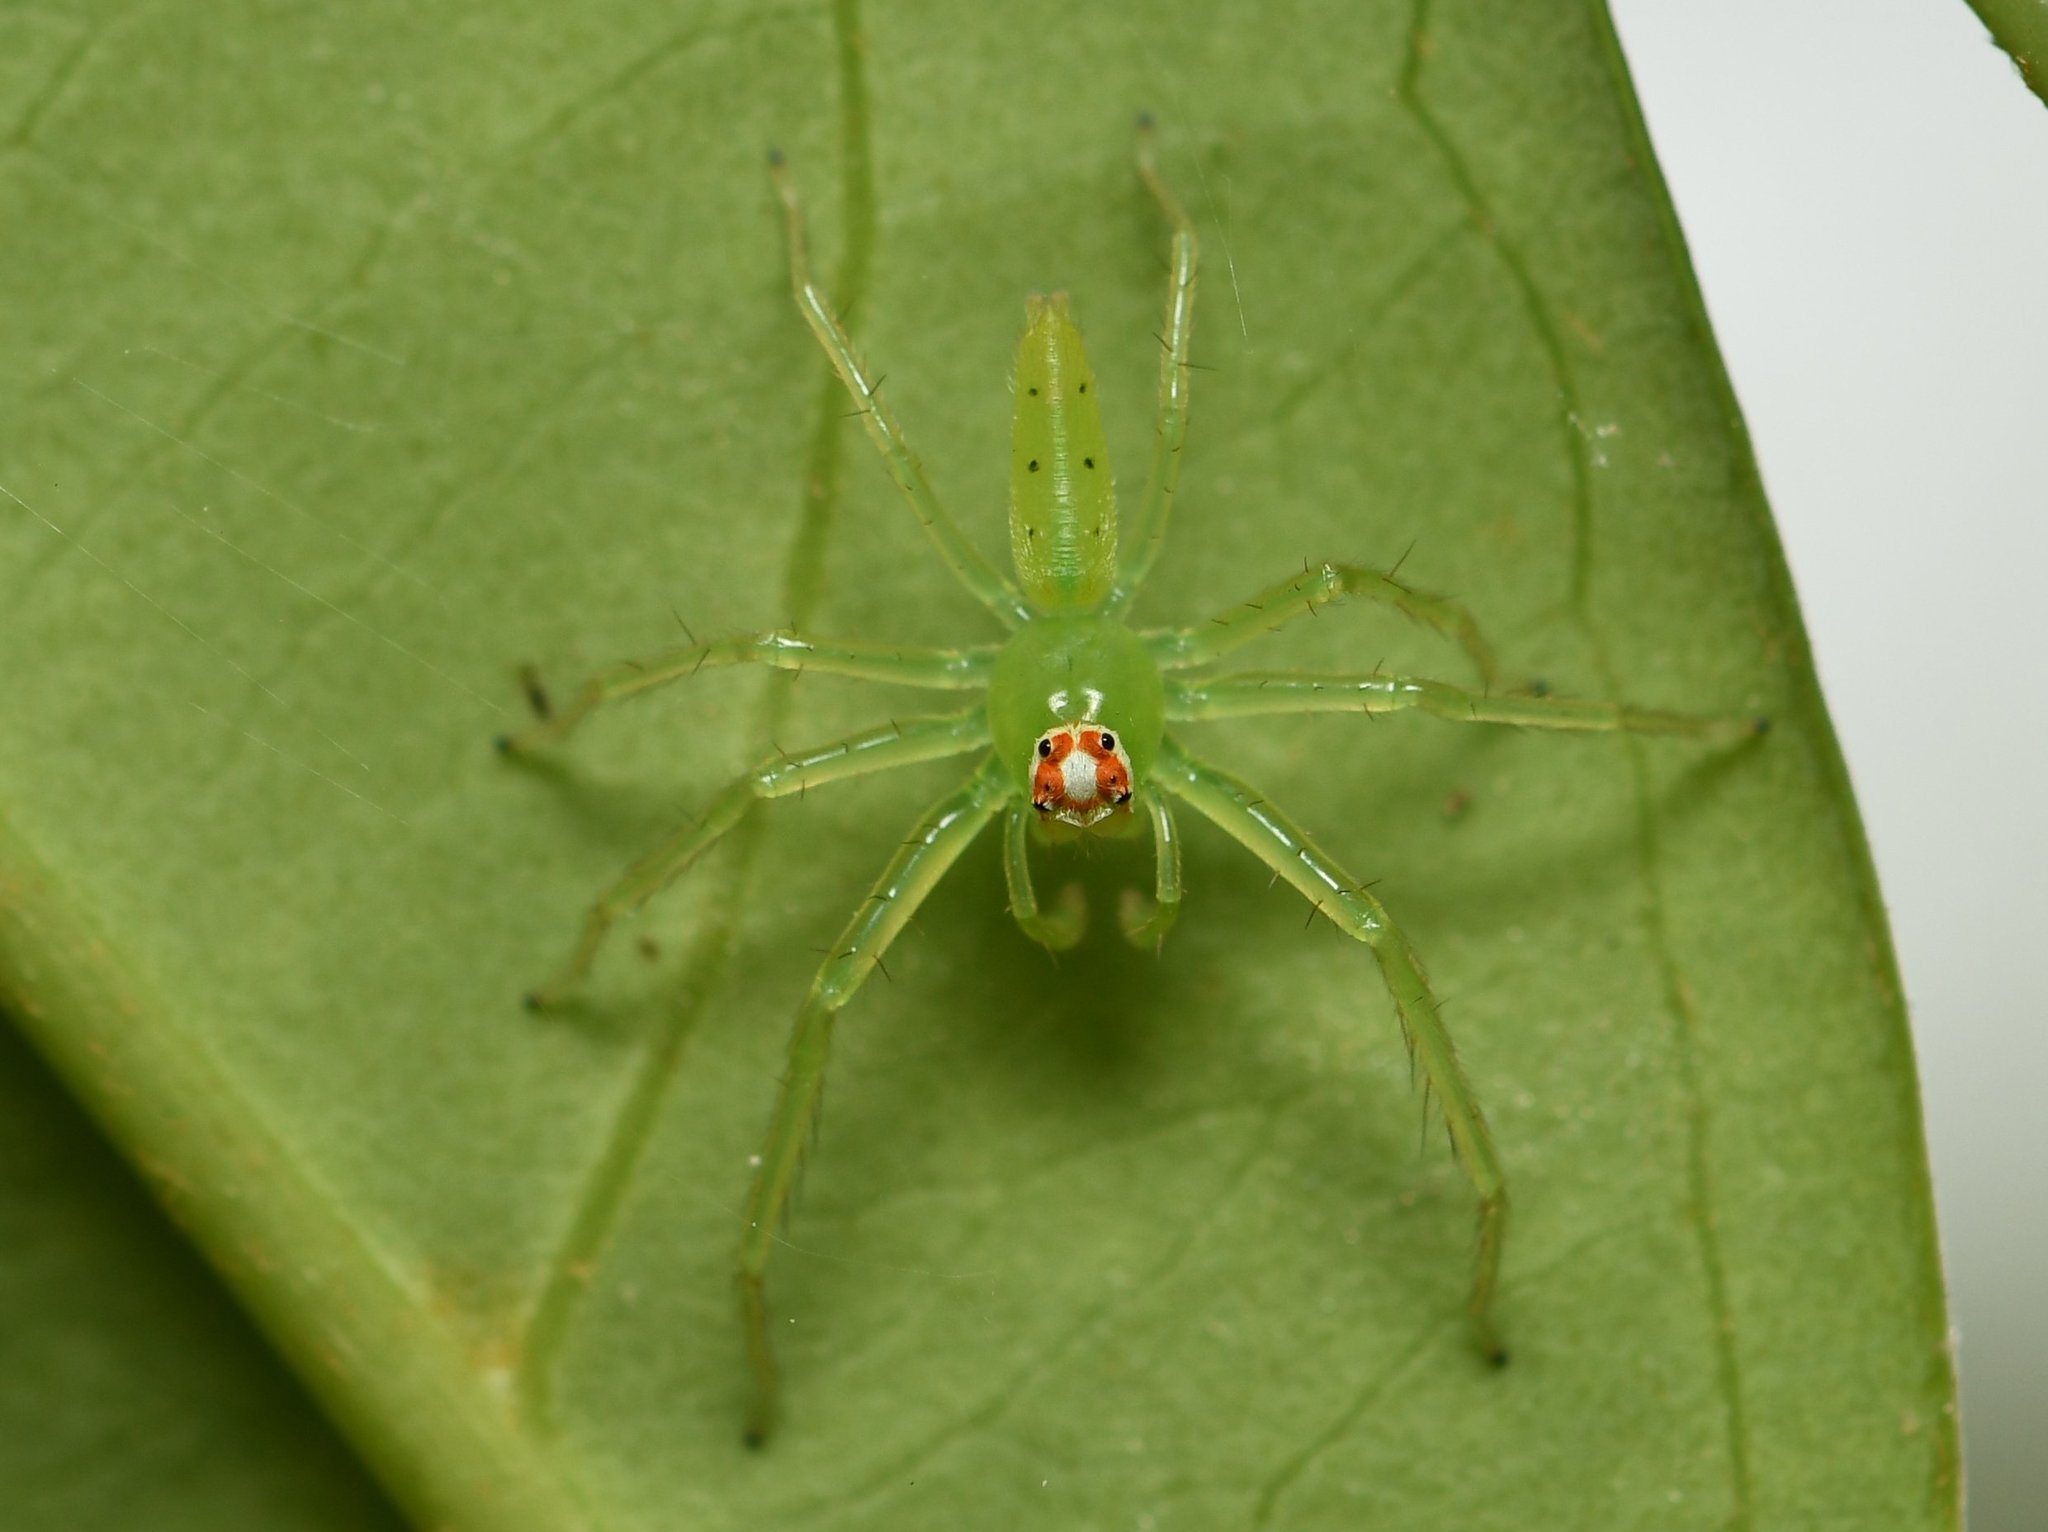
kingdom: Animalia
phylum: Arthropoda
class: Arachnida
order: Araneae
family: Salticidae
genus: Lyssomanes
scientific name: Lyssomanes viridis
